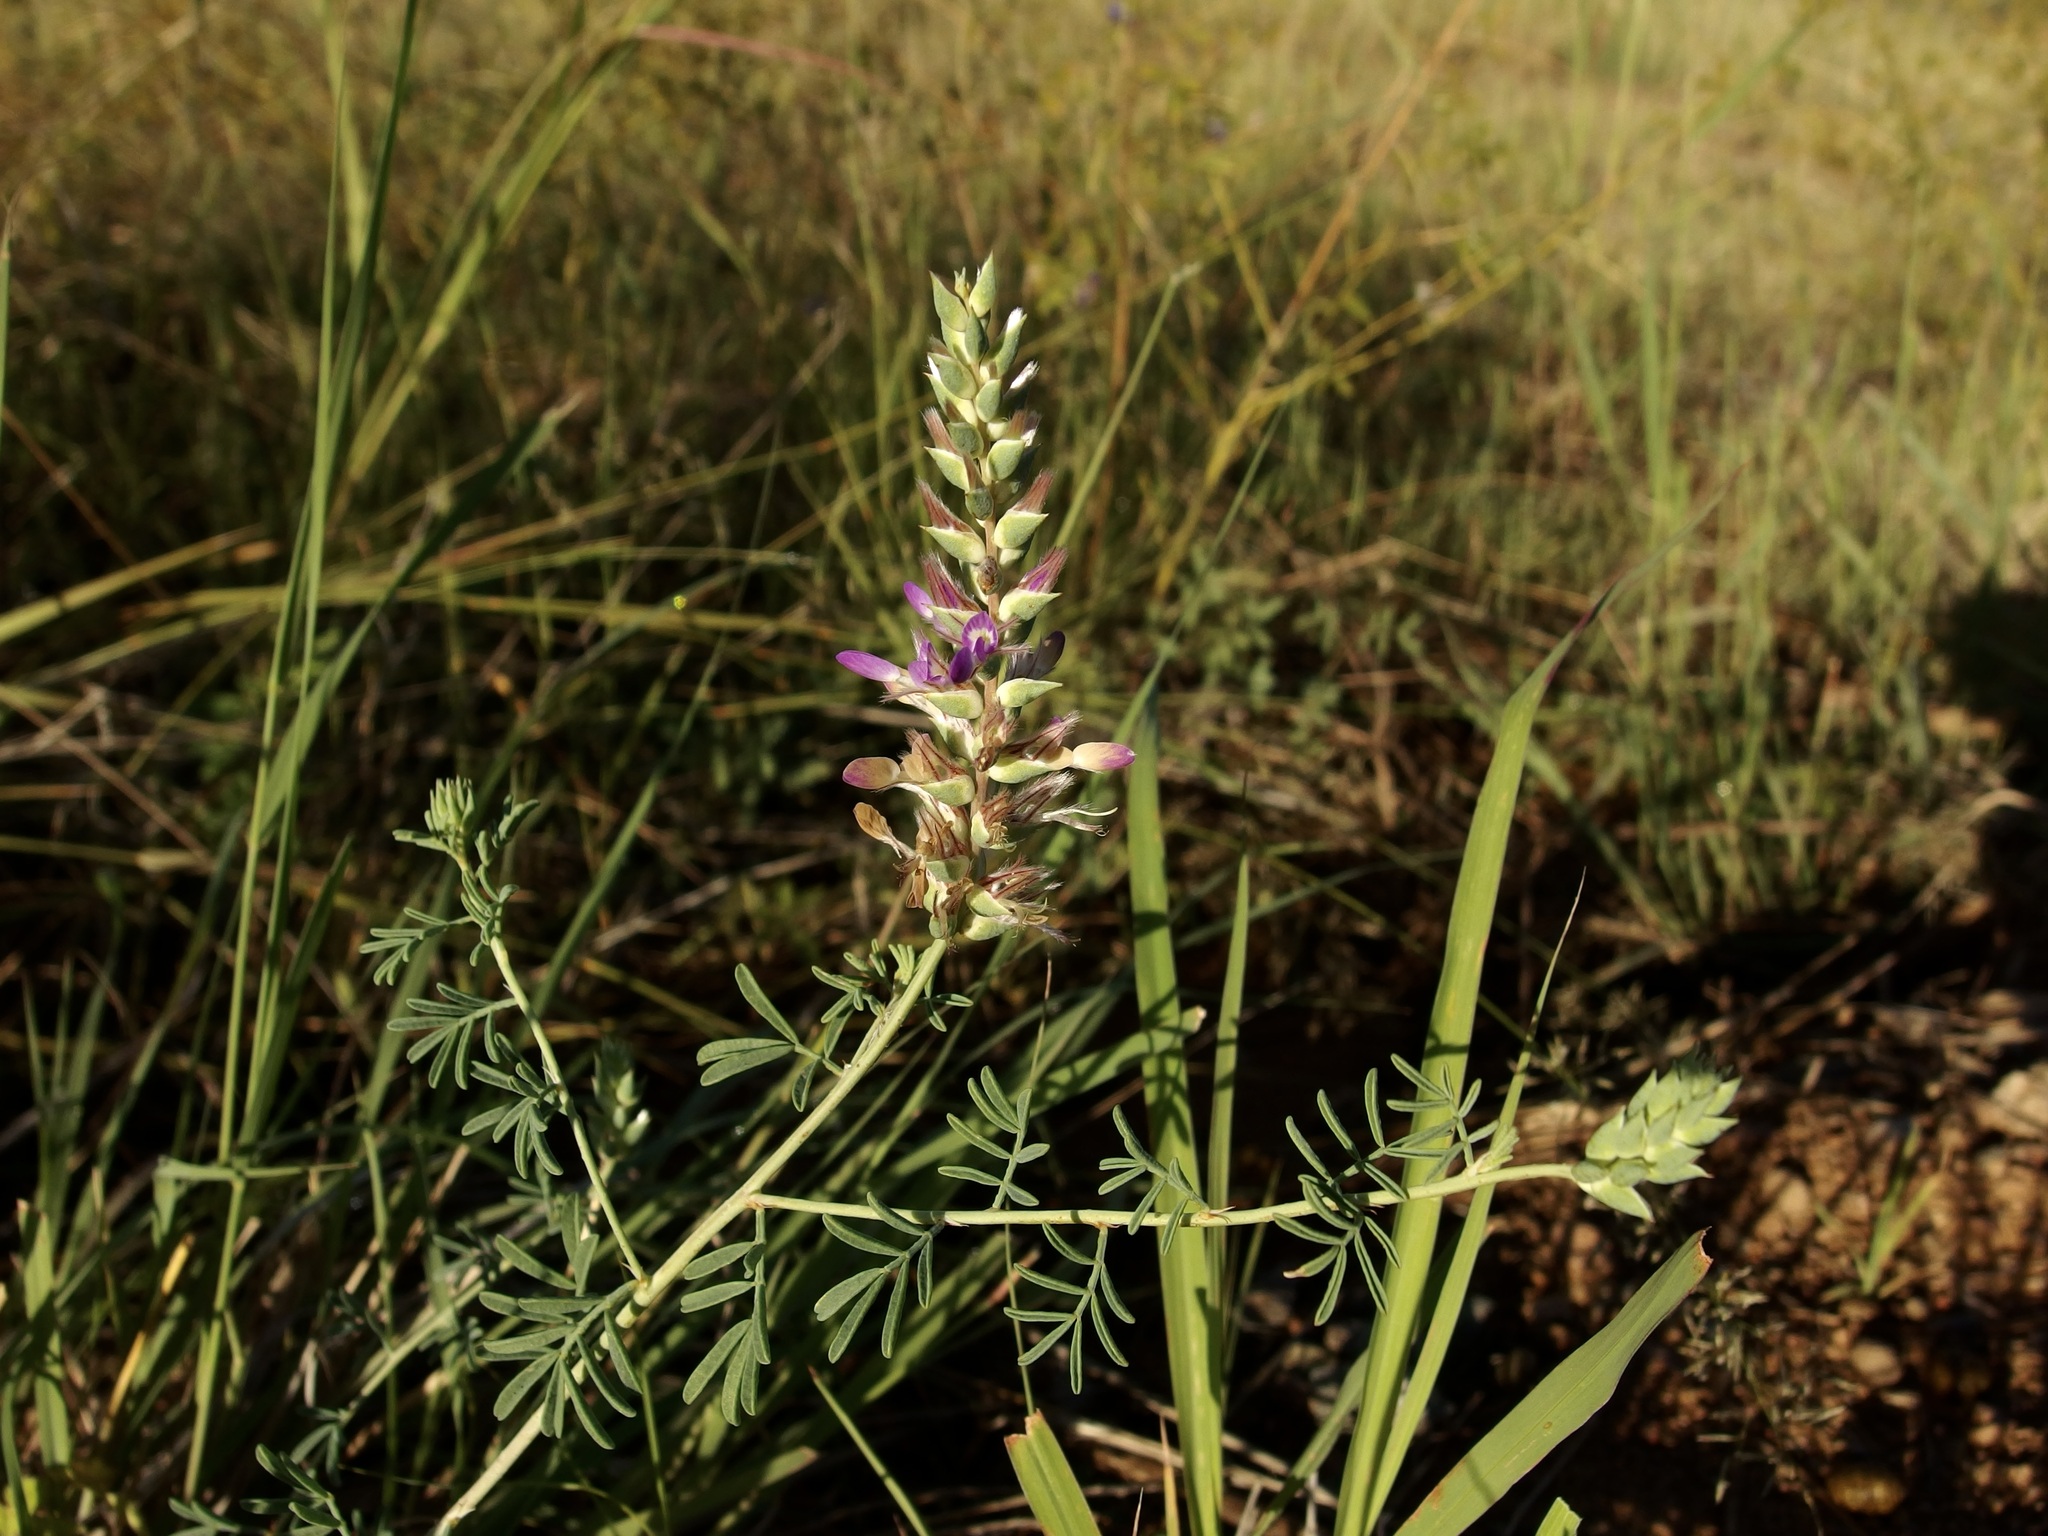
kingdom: Plantae
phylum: Tracheophyta
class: Magnoliopsida
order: Fabales
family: Fabaceae
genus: Dalea
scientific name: Dalea pogonathera
